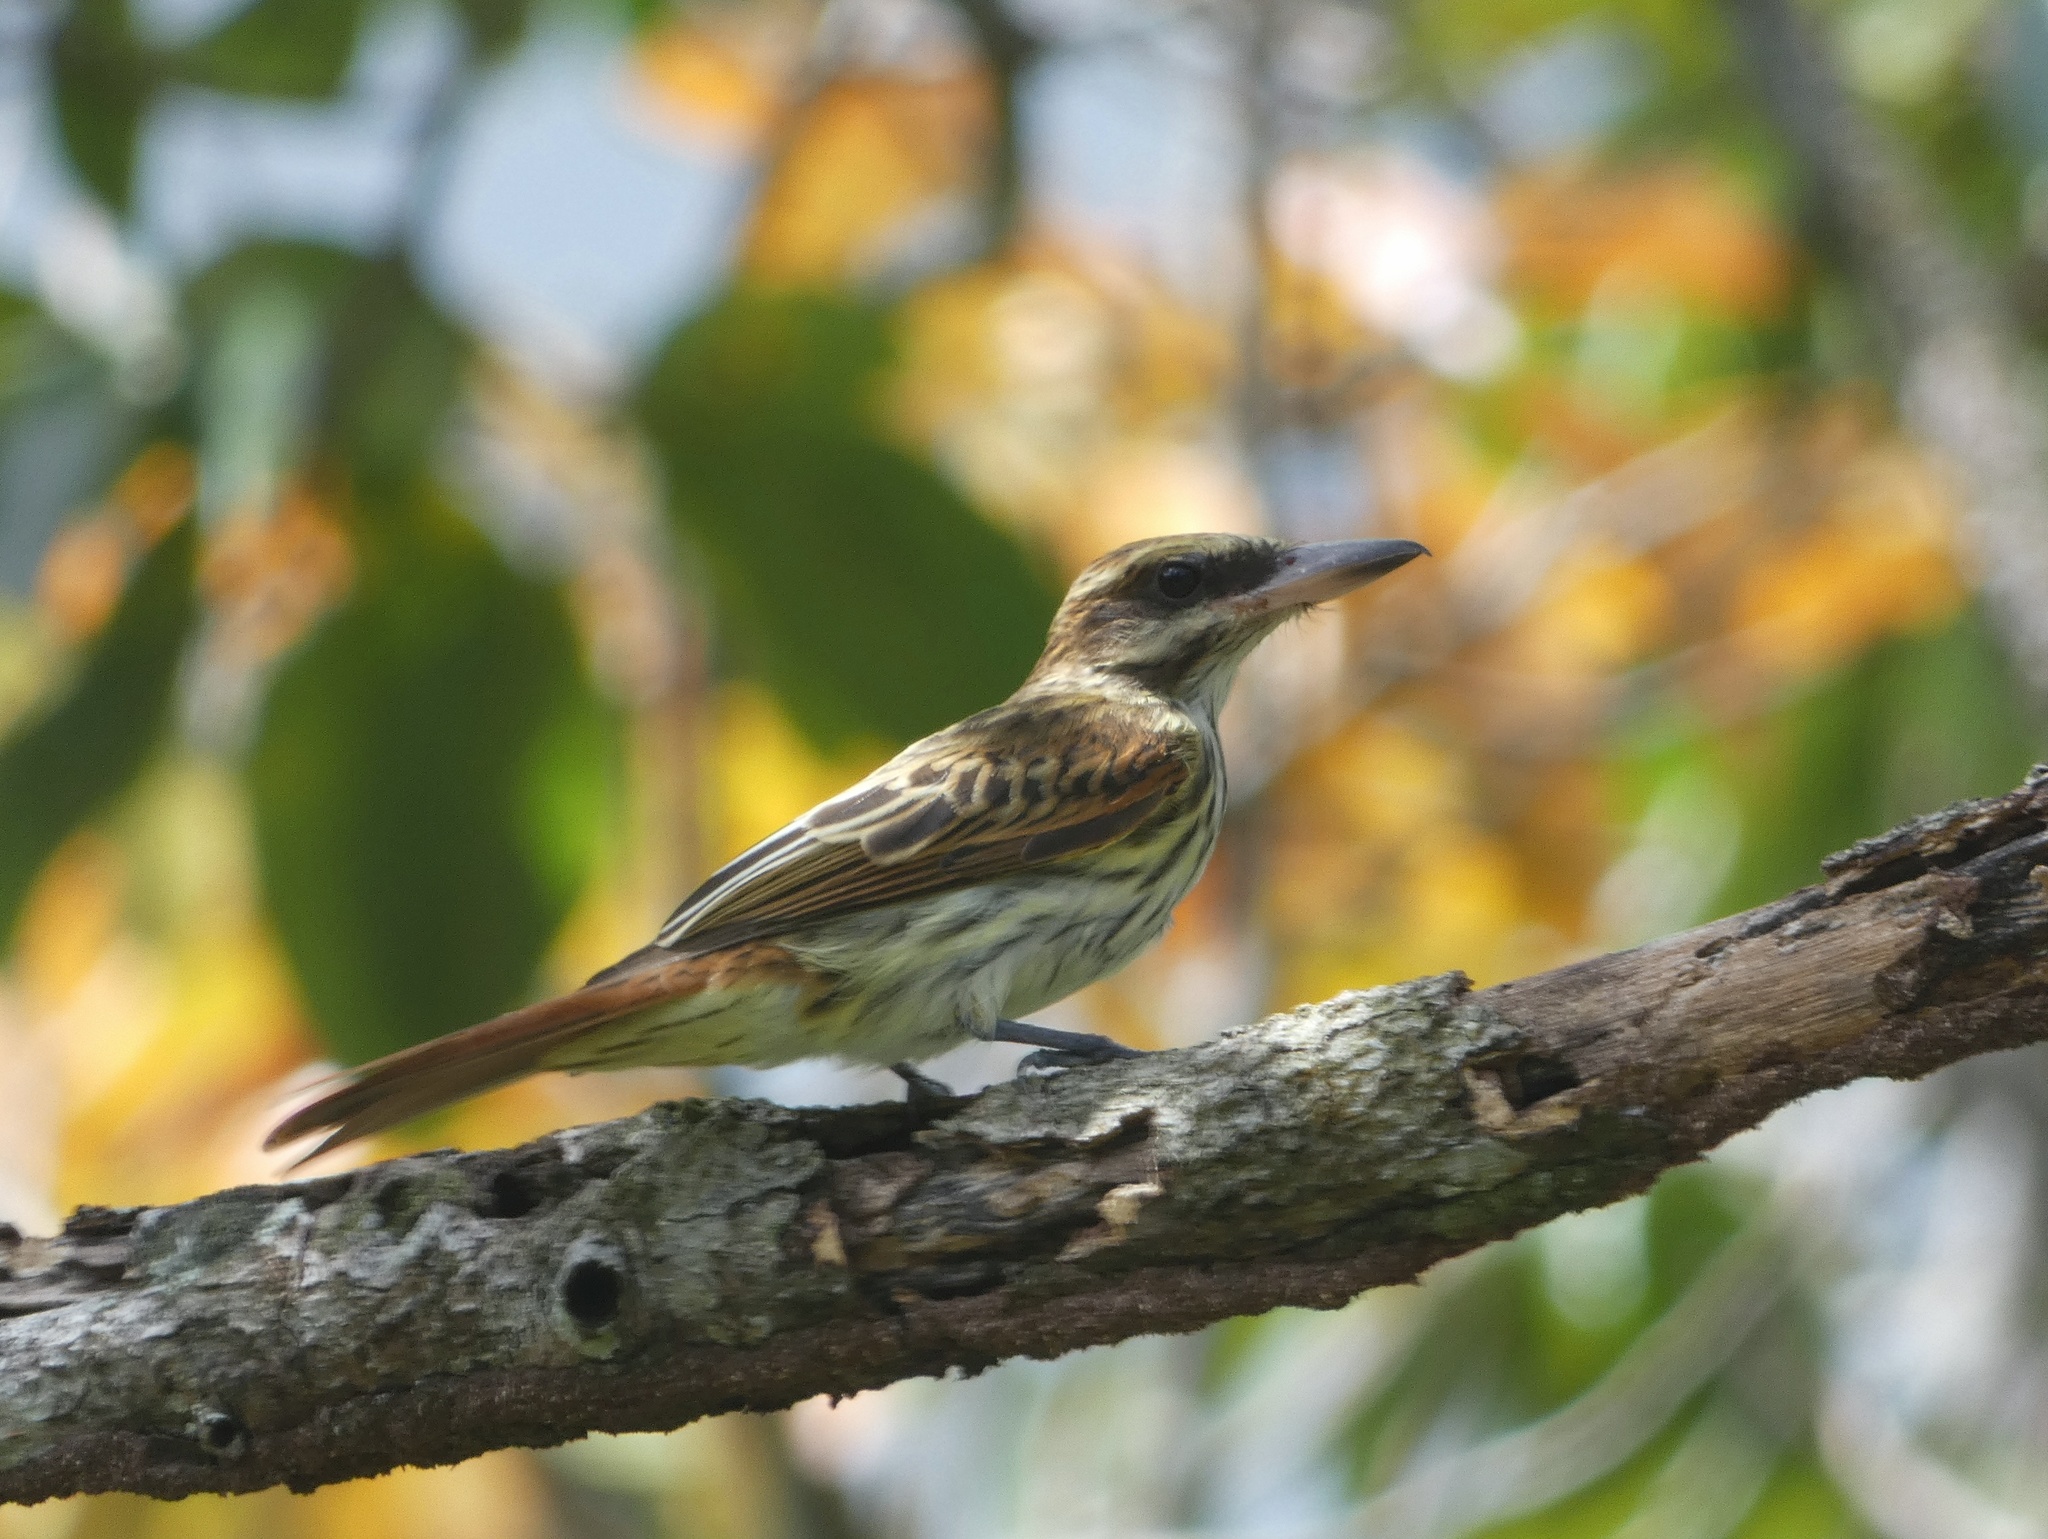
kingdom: Animalia
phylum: Chordata
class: Aves
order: Passeriformes
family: Tyrannidae
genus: Myiodynastes
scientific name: Myiodynastes maculatus
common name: Streaked flycatcher
